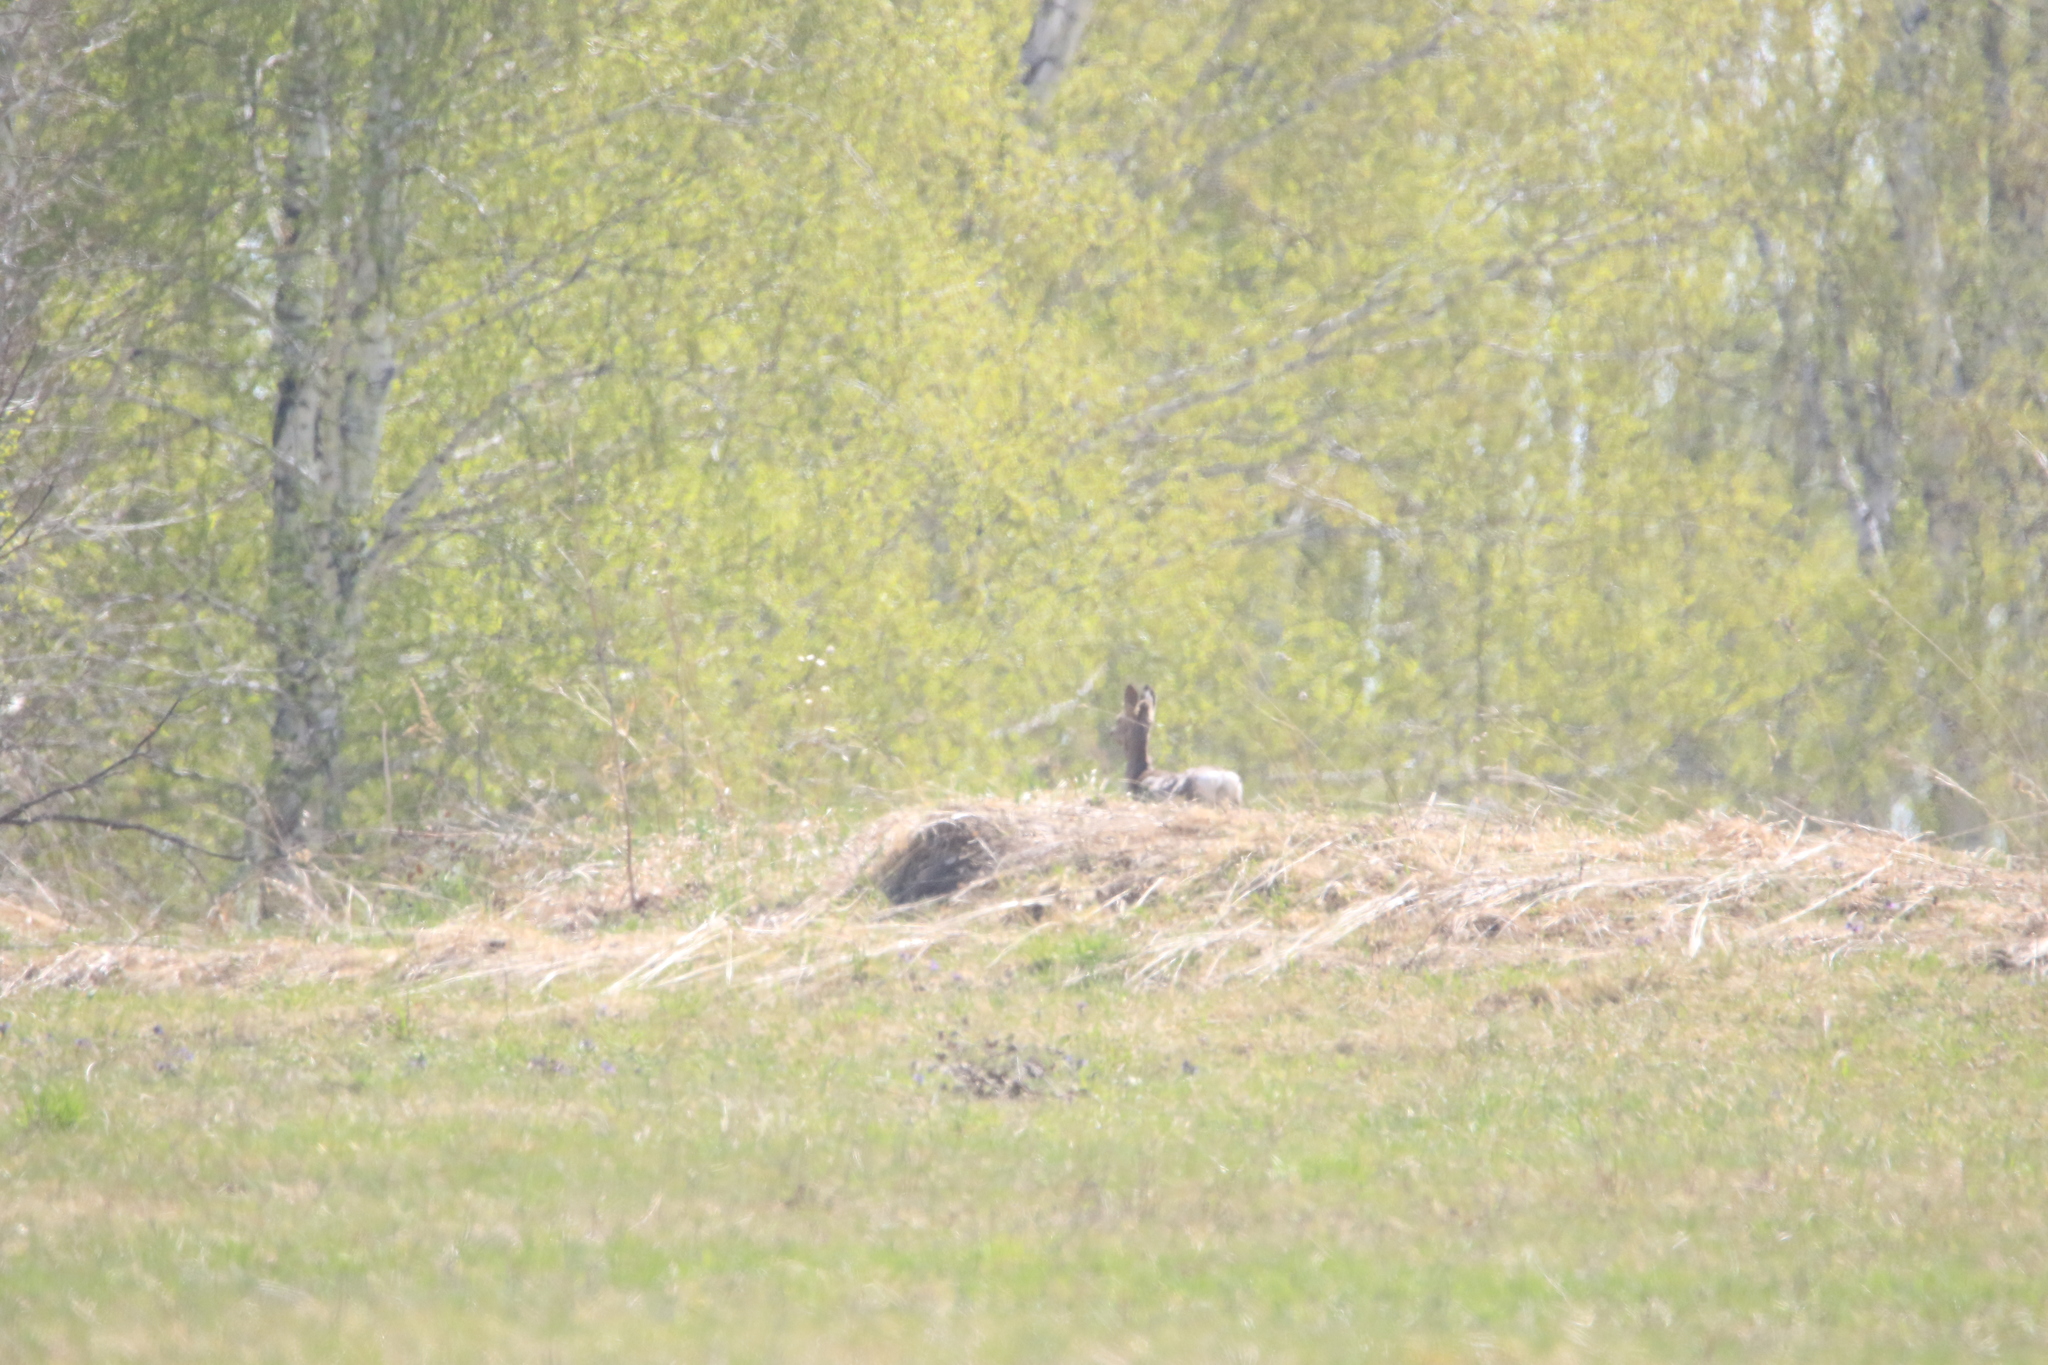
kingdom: Animalia
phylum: Chordata
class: Mammalia
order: Artiodactyla
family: Cervidae
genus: Capreolus
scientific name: Capreolus pygargus
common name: Siberian roe
